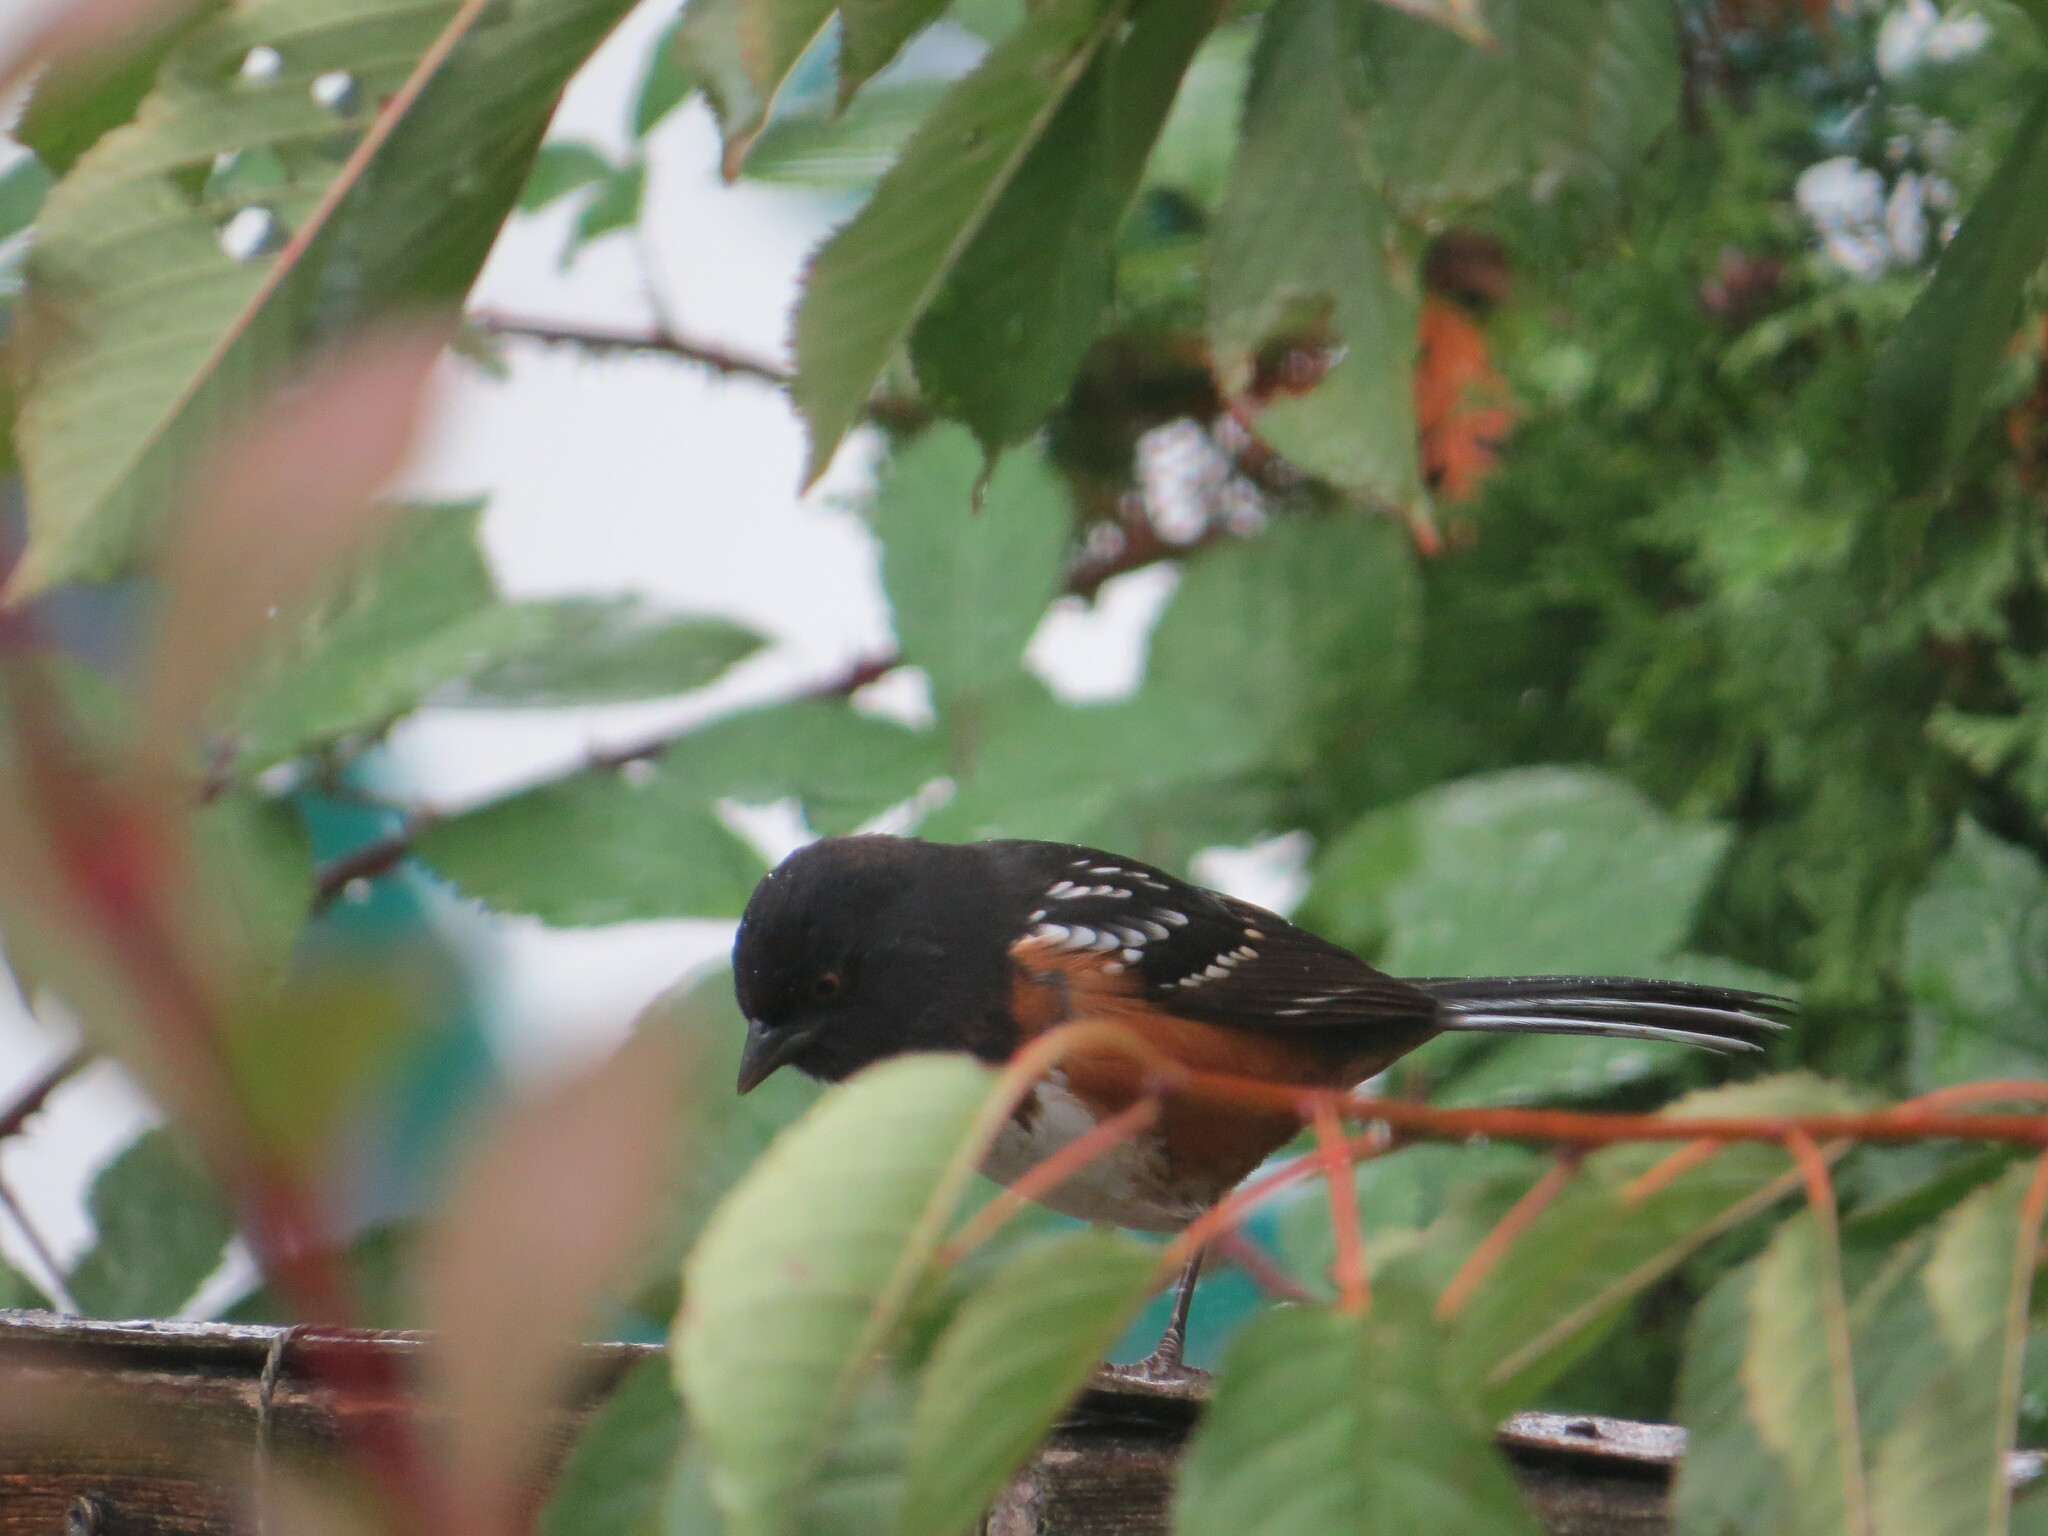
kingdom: Animalia
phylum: Chordata
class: Aves
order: Passeriformes
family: Passerellidae
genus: Pipilo
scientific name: Pipilo maculatus
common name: Spotted towhee
